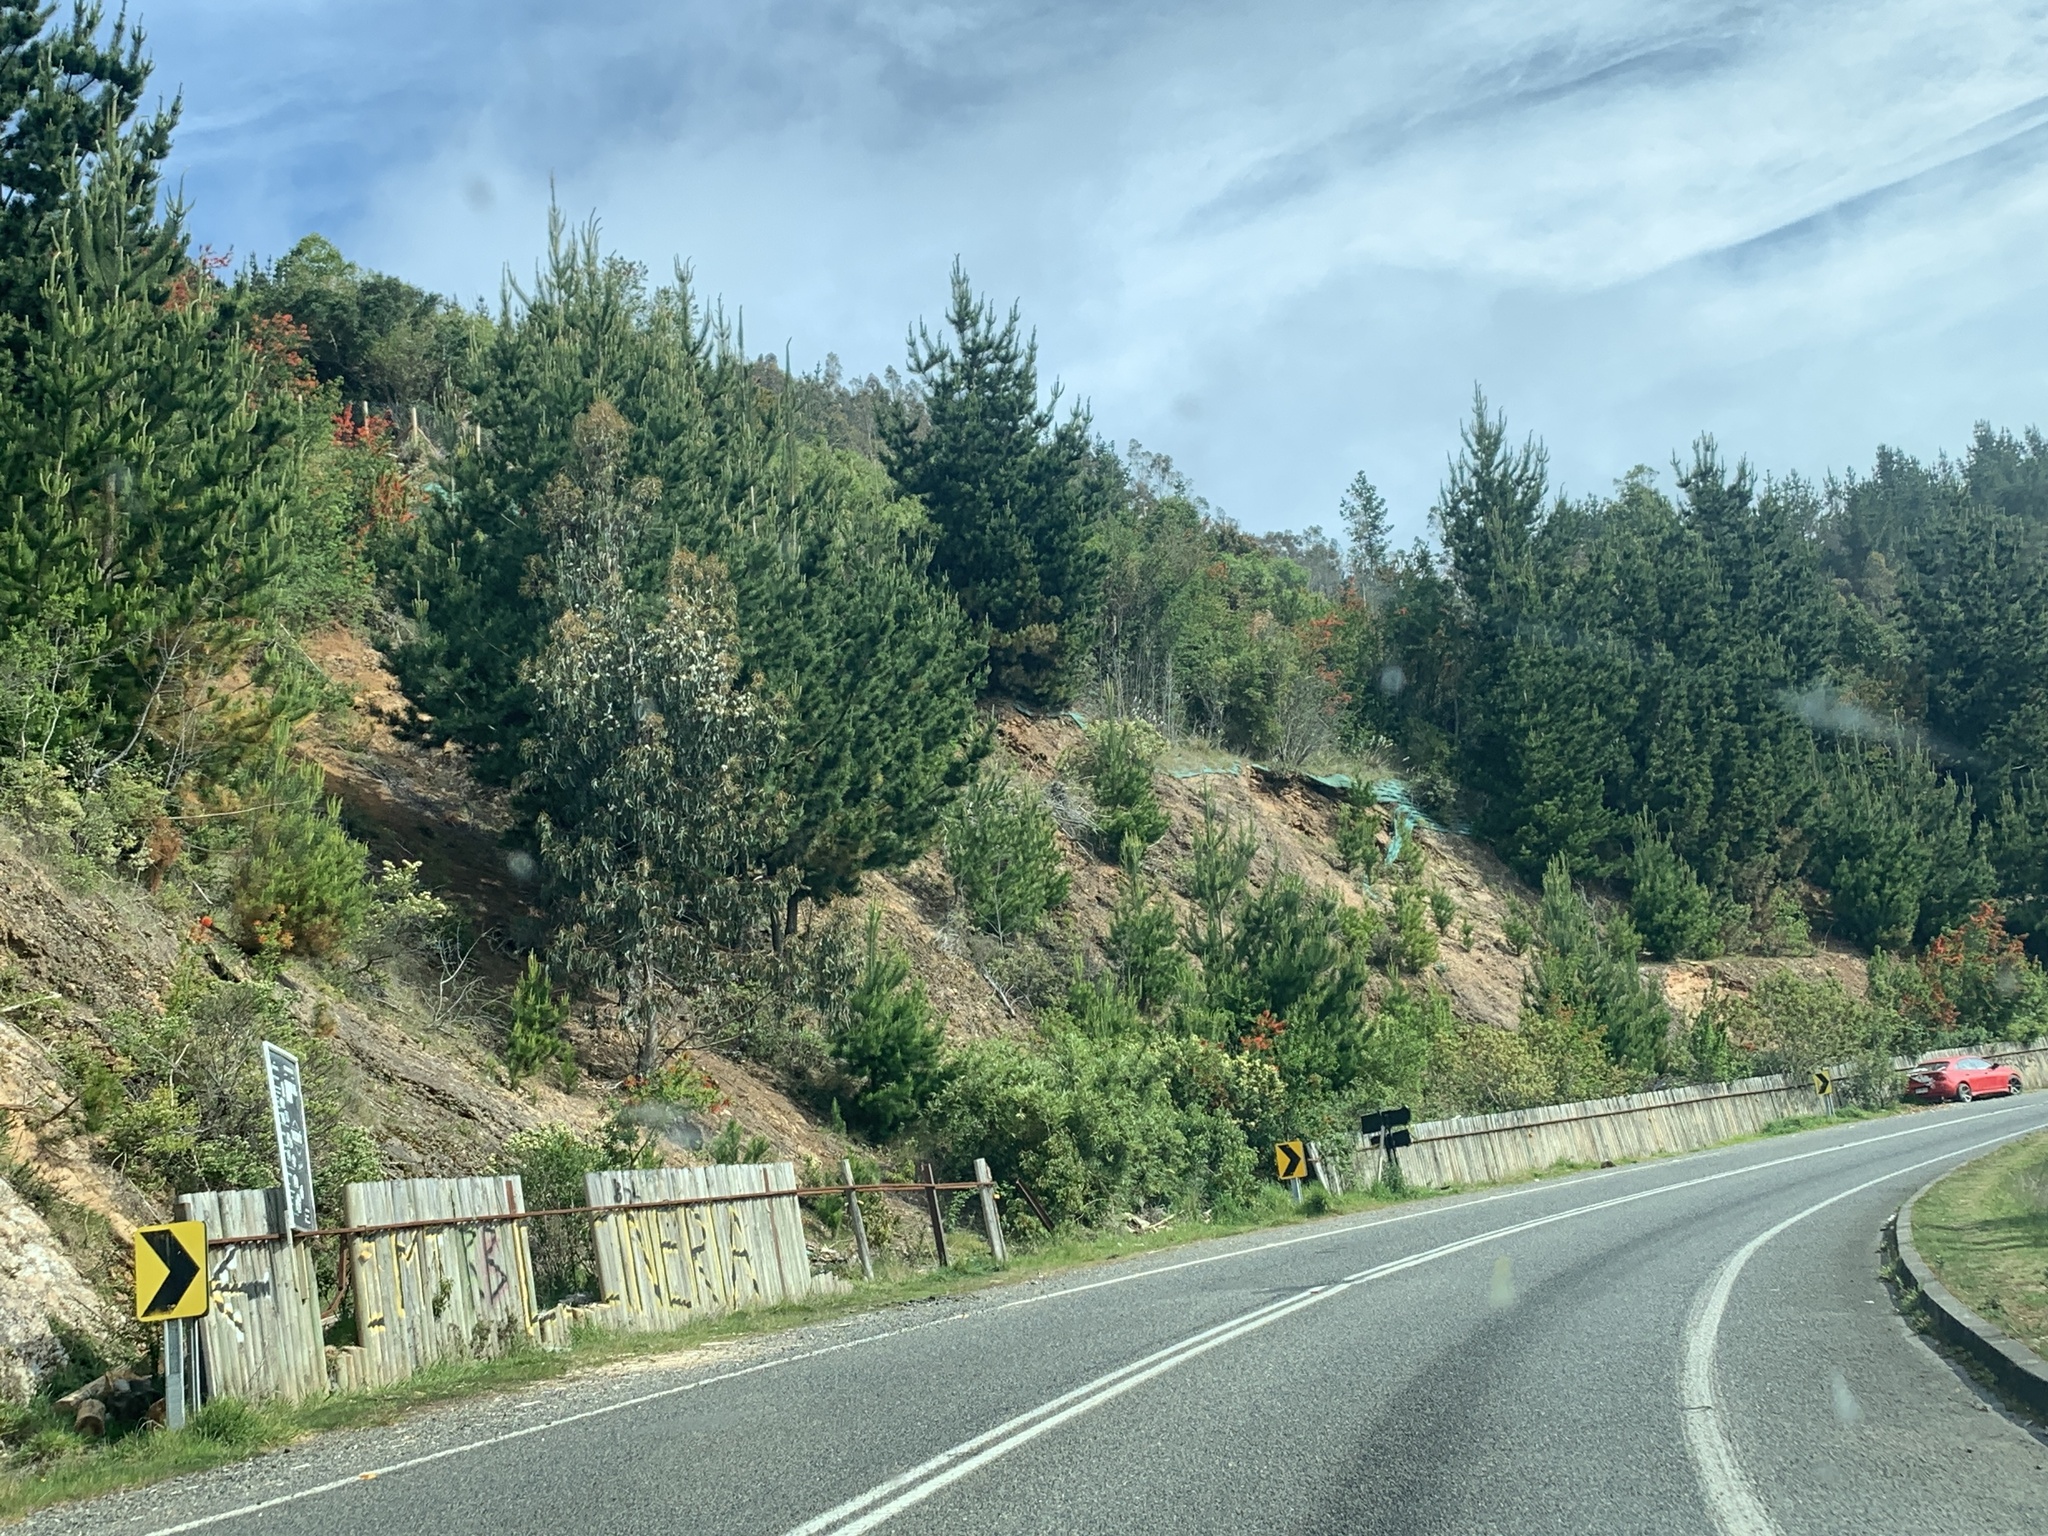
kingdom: Plantae
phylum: Tracheophyta
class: Pinopsida
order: Pinales
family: Pinaceae
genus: Pinus
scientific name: Pinus radiata
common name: Monterey pine
